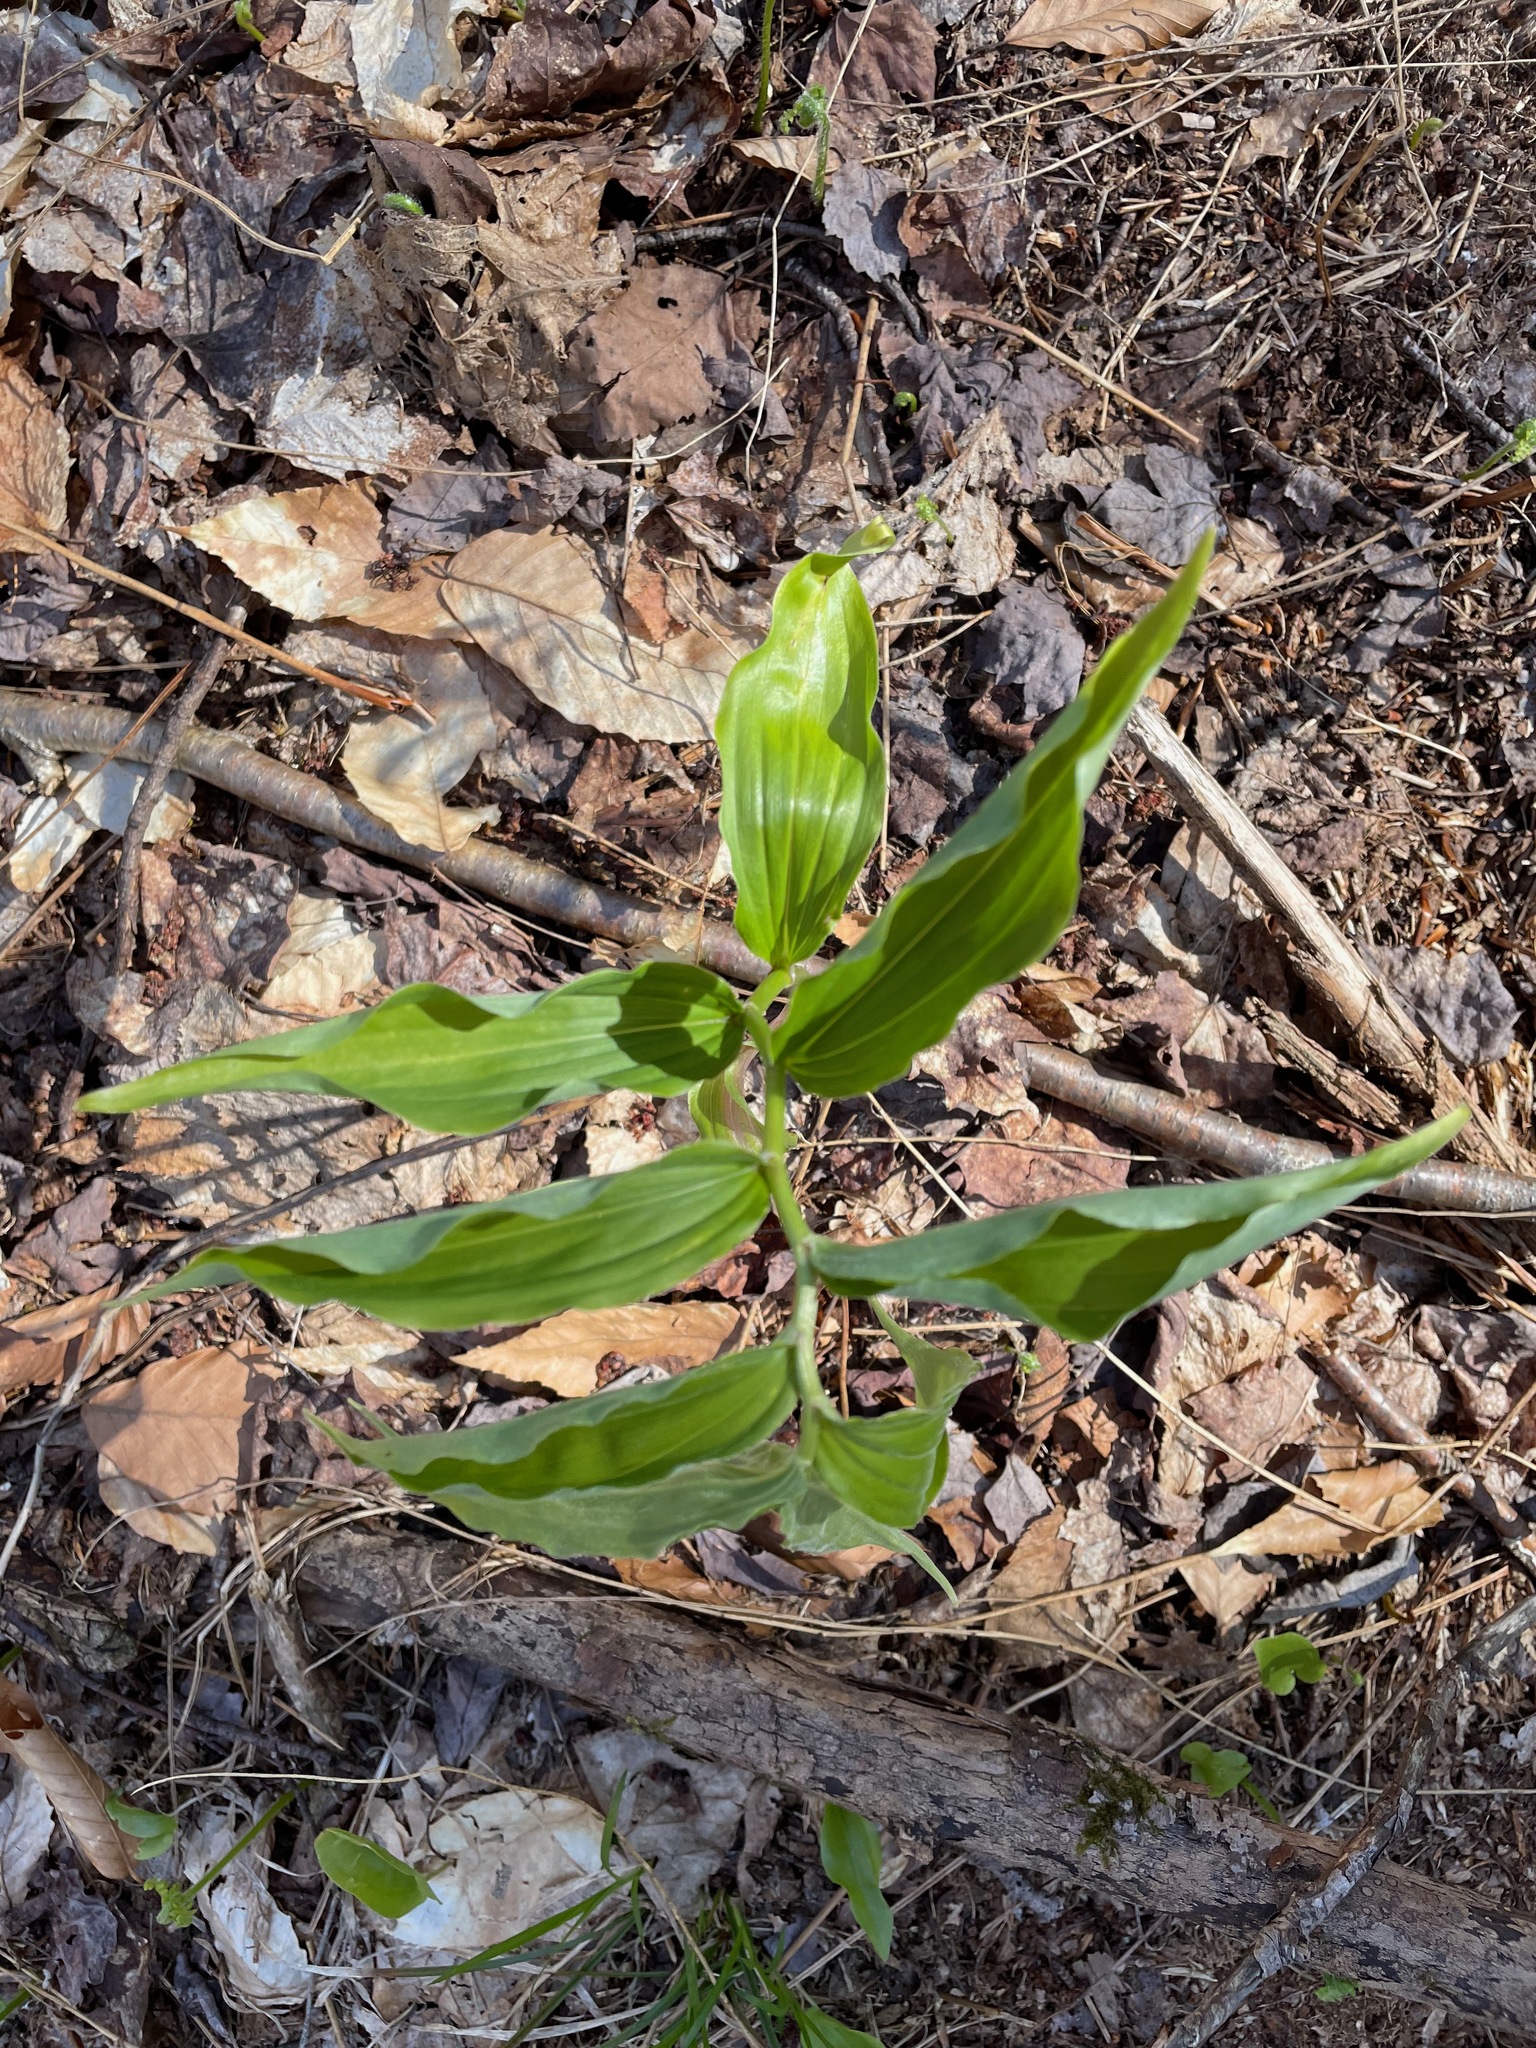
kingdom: Plantae
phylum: Tracheophyta
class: Liliopsida
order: Asparagales
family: Asparagaceae
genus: Maianthemum
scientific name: Maianthemum racemosum
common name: False spikenard
